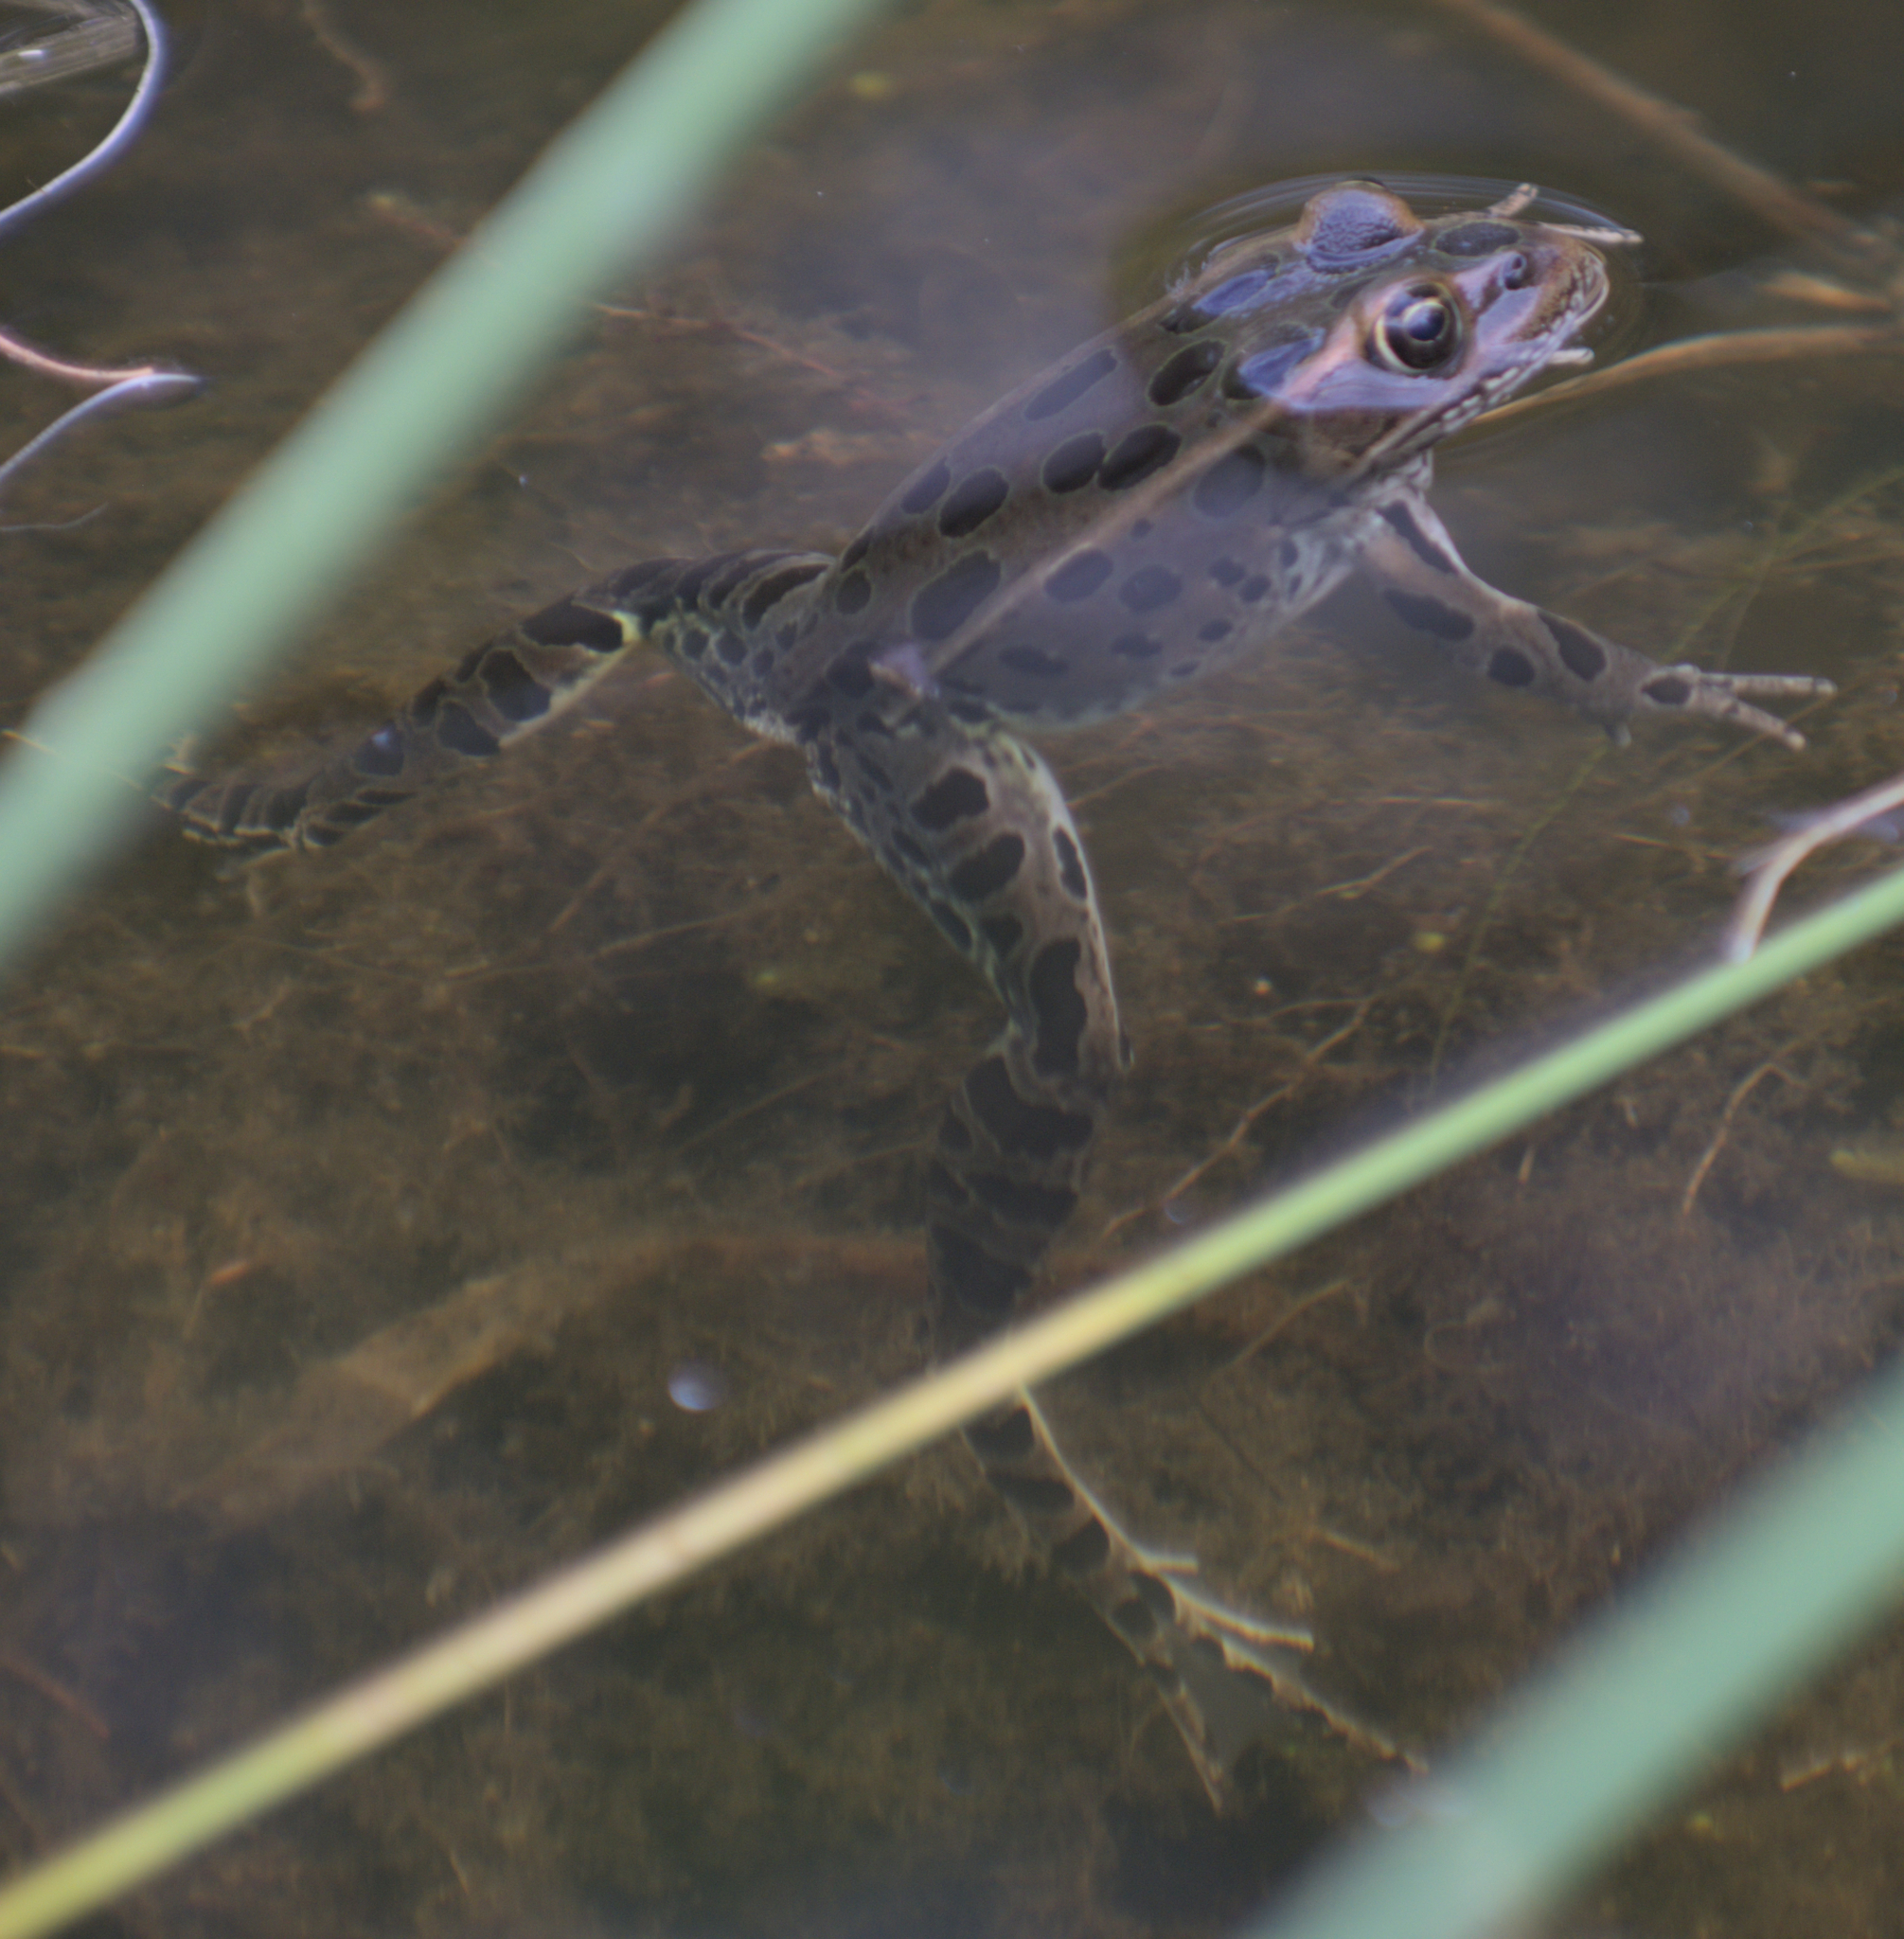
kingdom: Animalia
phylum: Chordata
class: Amphibia
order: Anura
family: Ranidae
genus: Lithobates
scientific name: Lithobates pipiens
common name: Northern leopard frog
